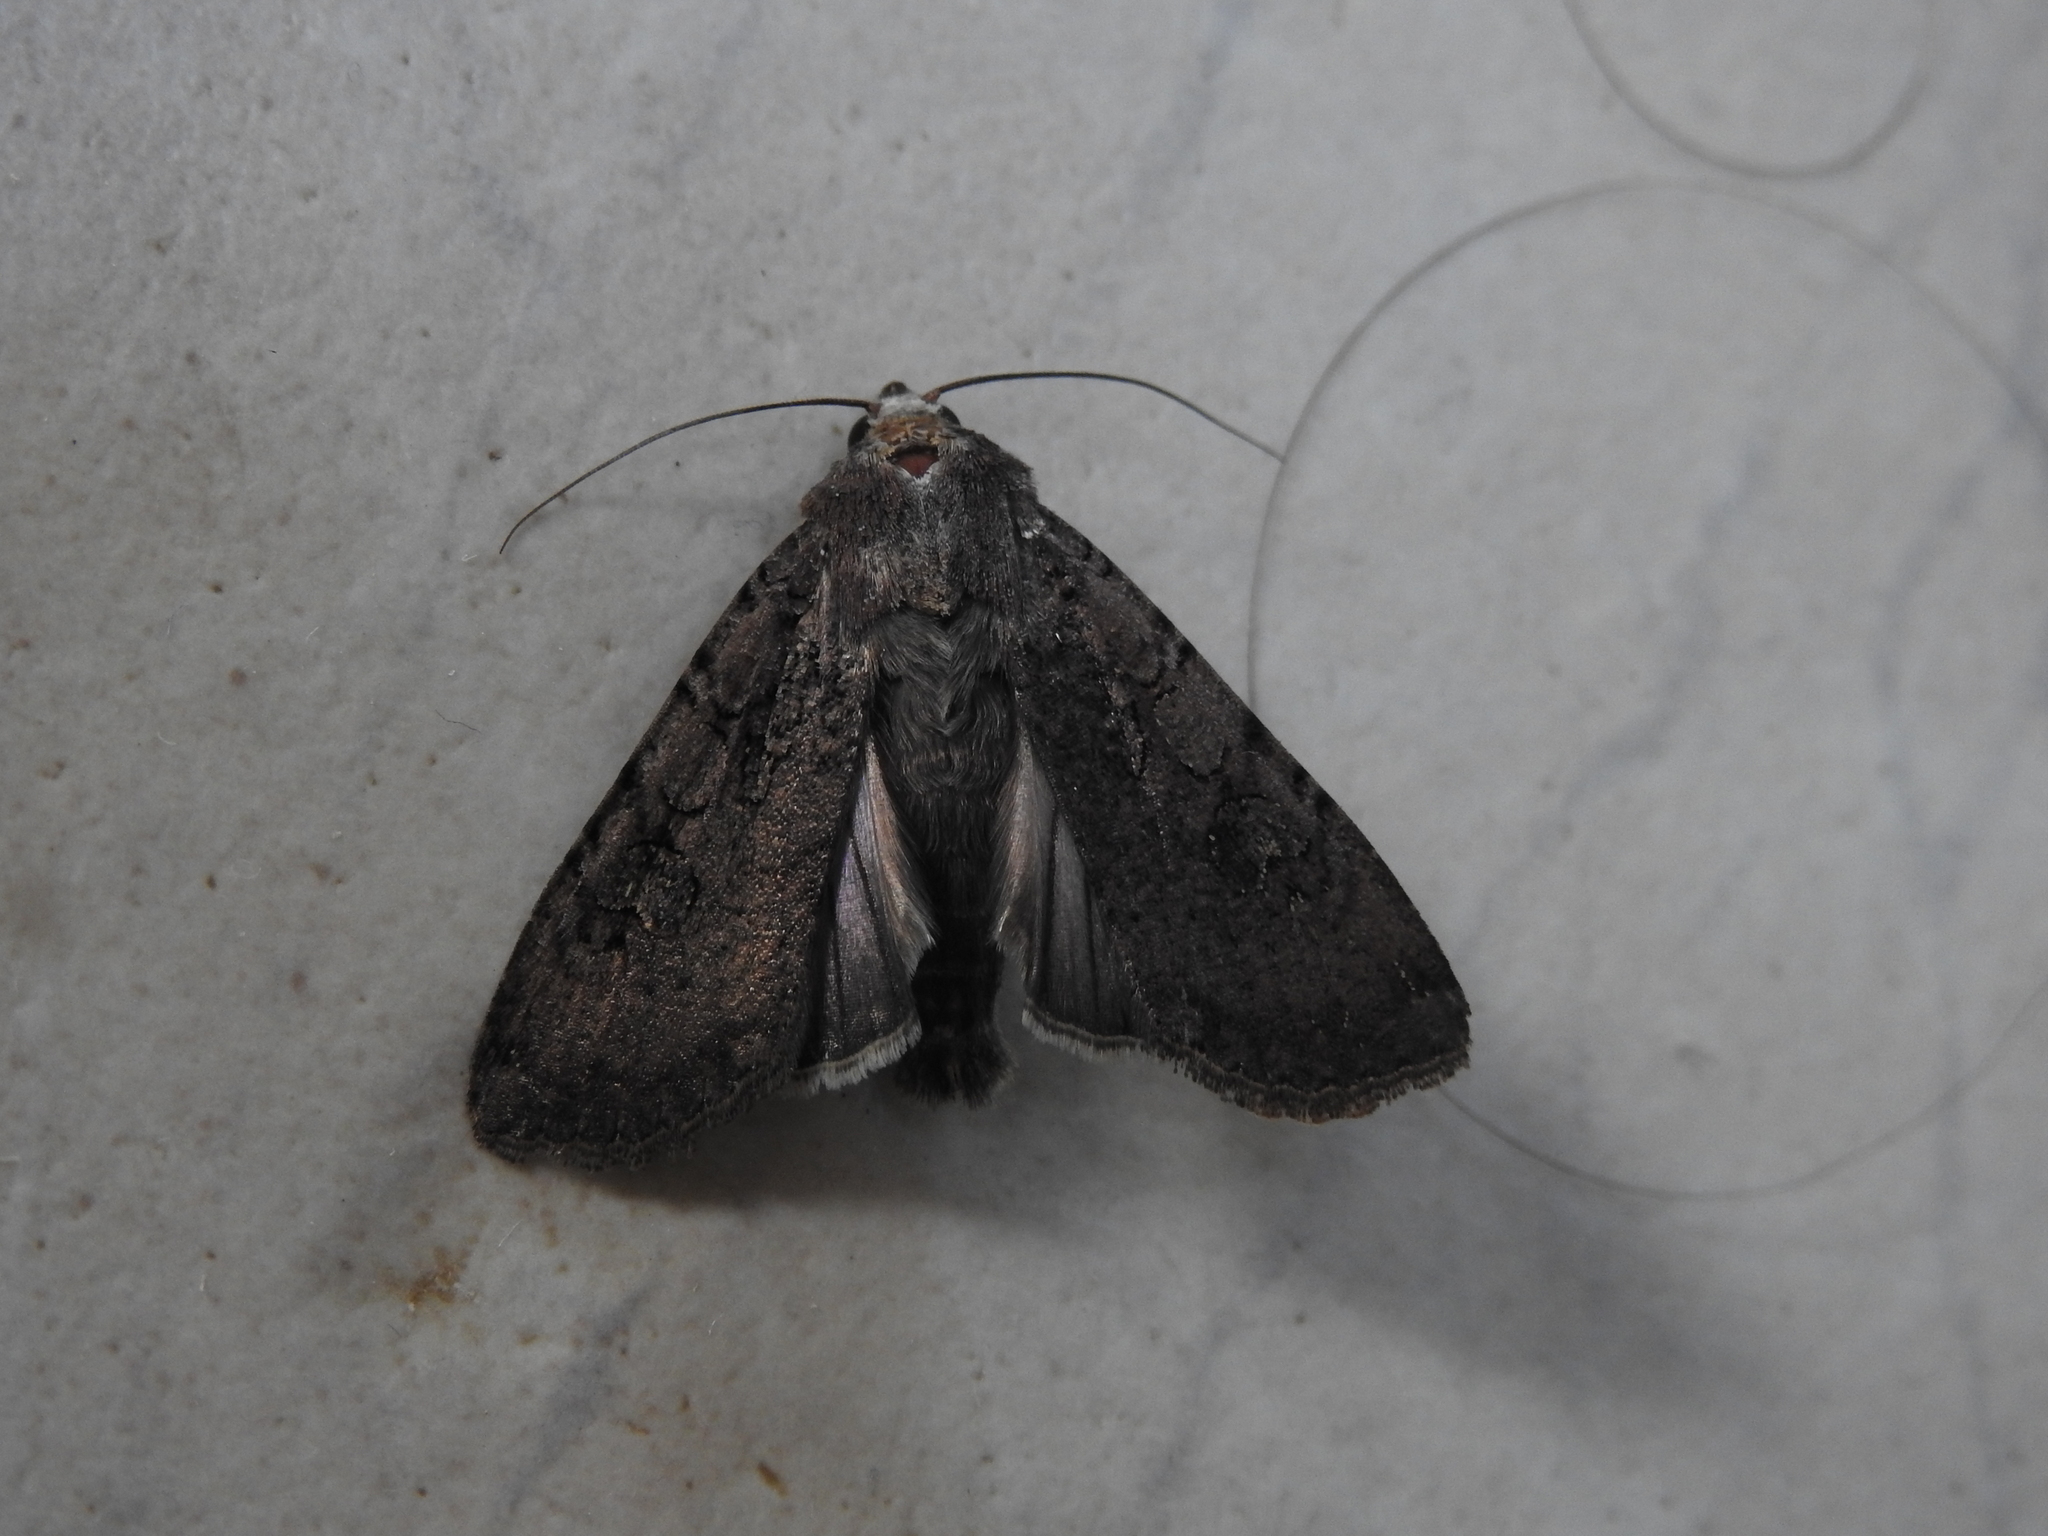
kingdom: Animalia
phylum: Arthropoda
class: Insecta
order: Lepidoptera
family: Noctuidae
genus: Peridroma
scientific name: Peridroma saucia
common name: Pearly underwing
